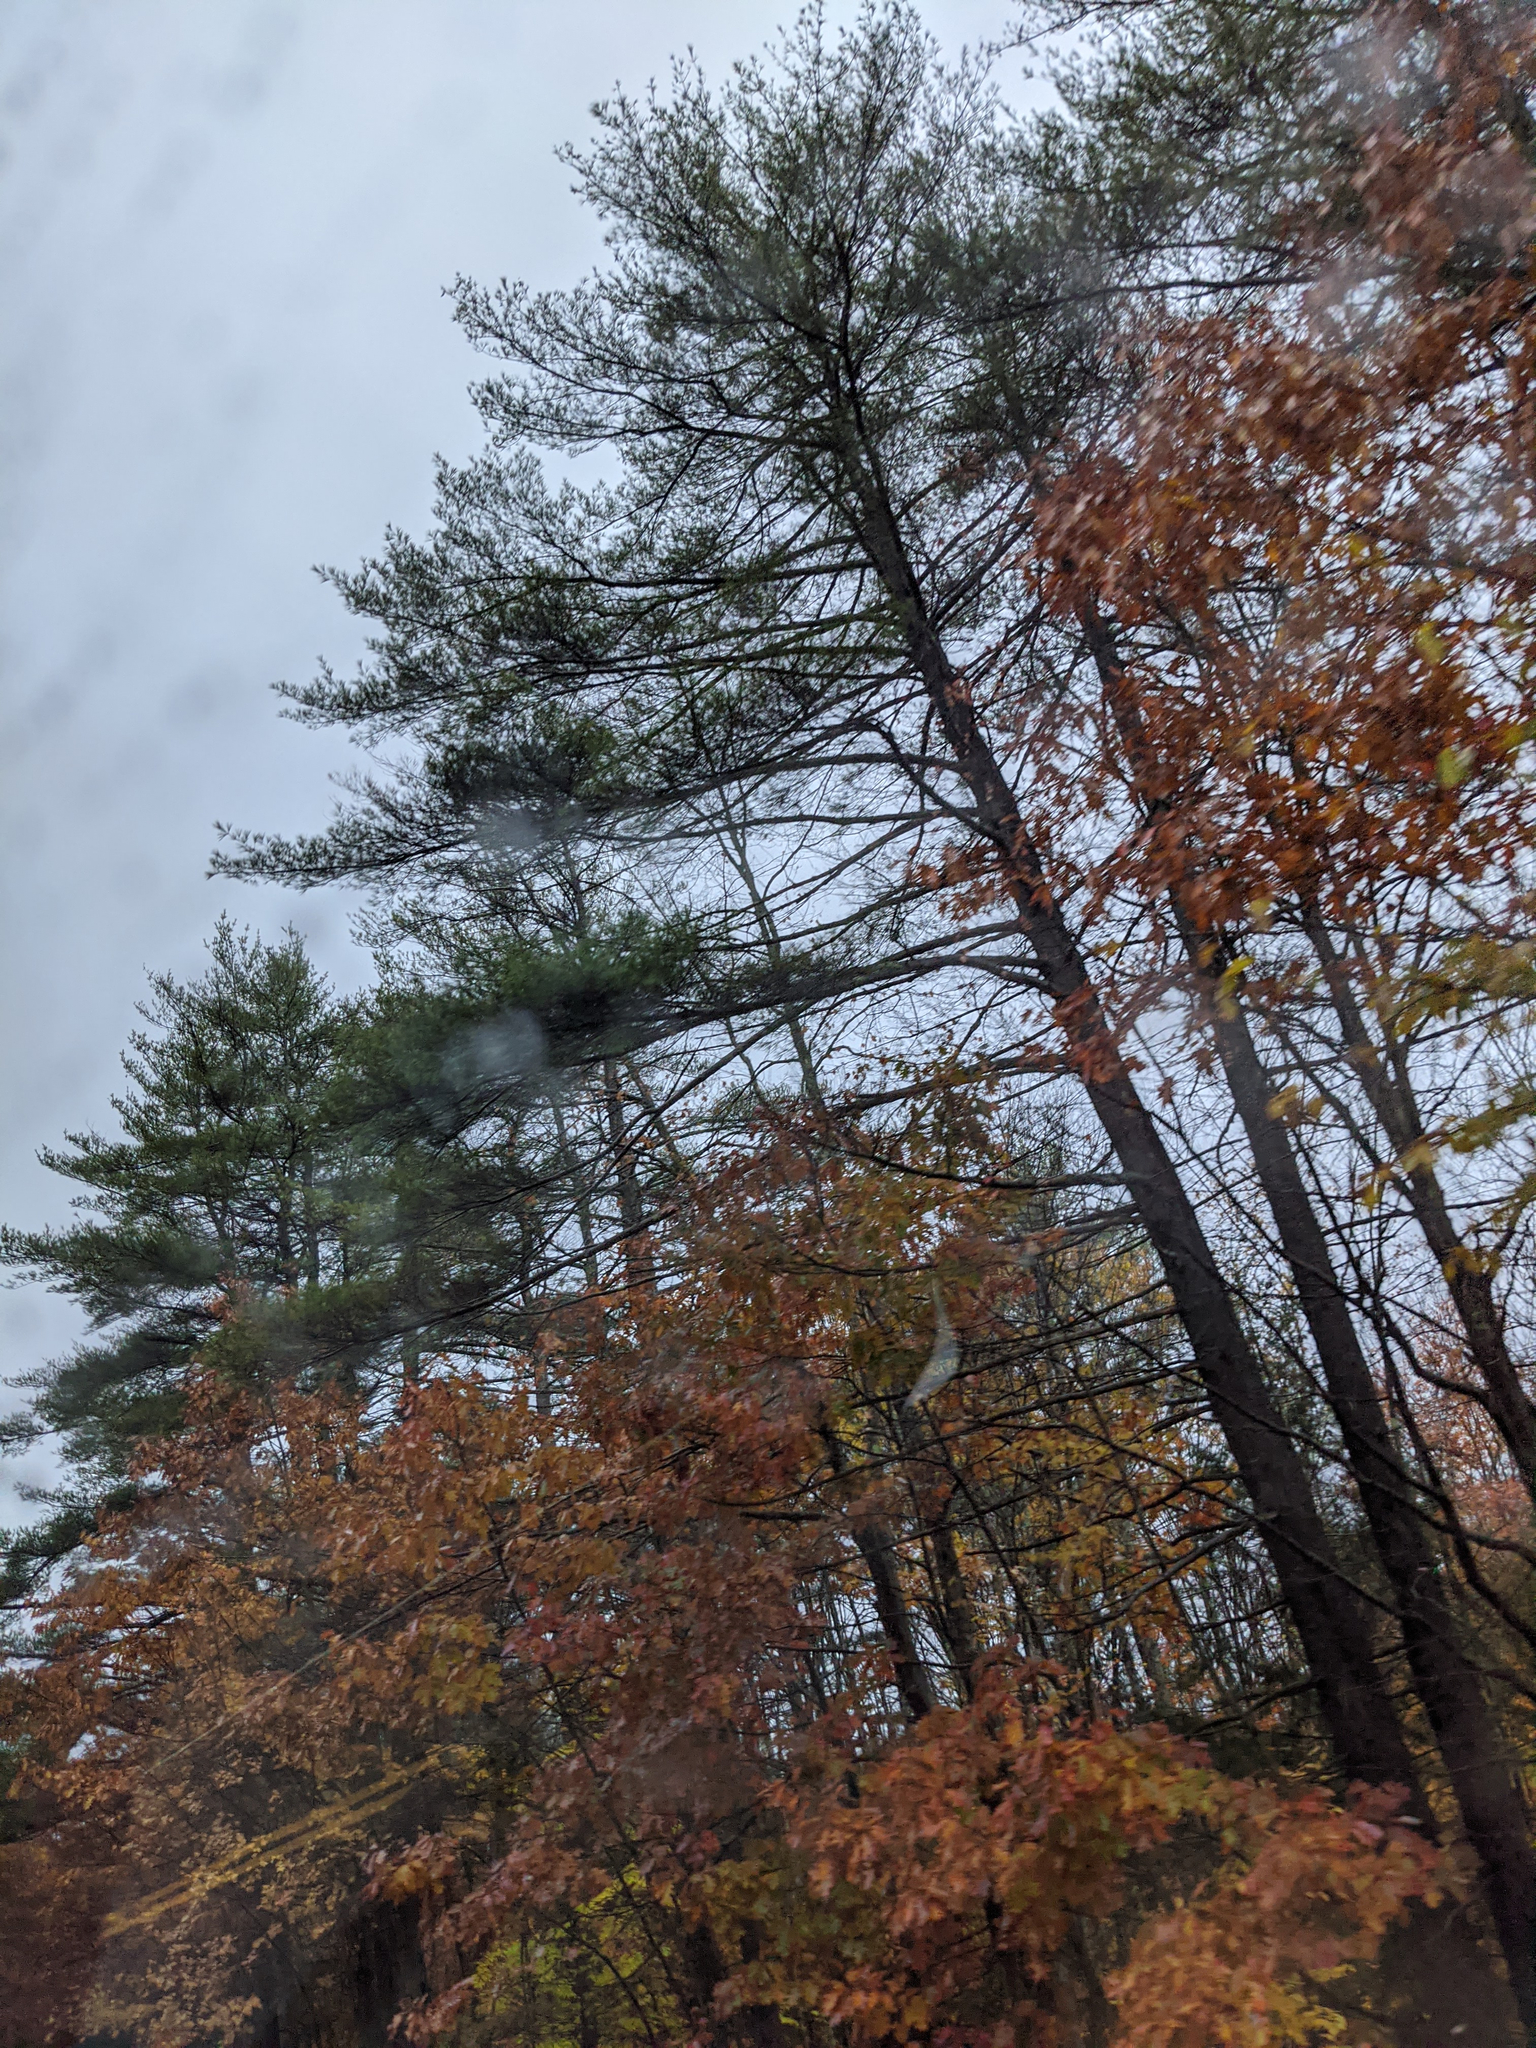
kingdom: Plantae
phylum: Tracheophyta
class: Pinopsida
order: Pinales
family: Pinaceae
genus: Pinus
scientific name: Pinus strobus
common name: Weymouth pine
